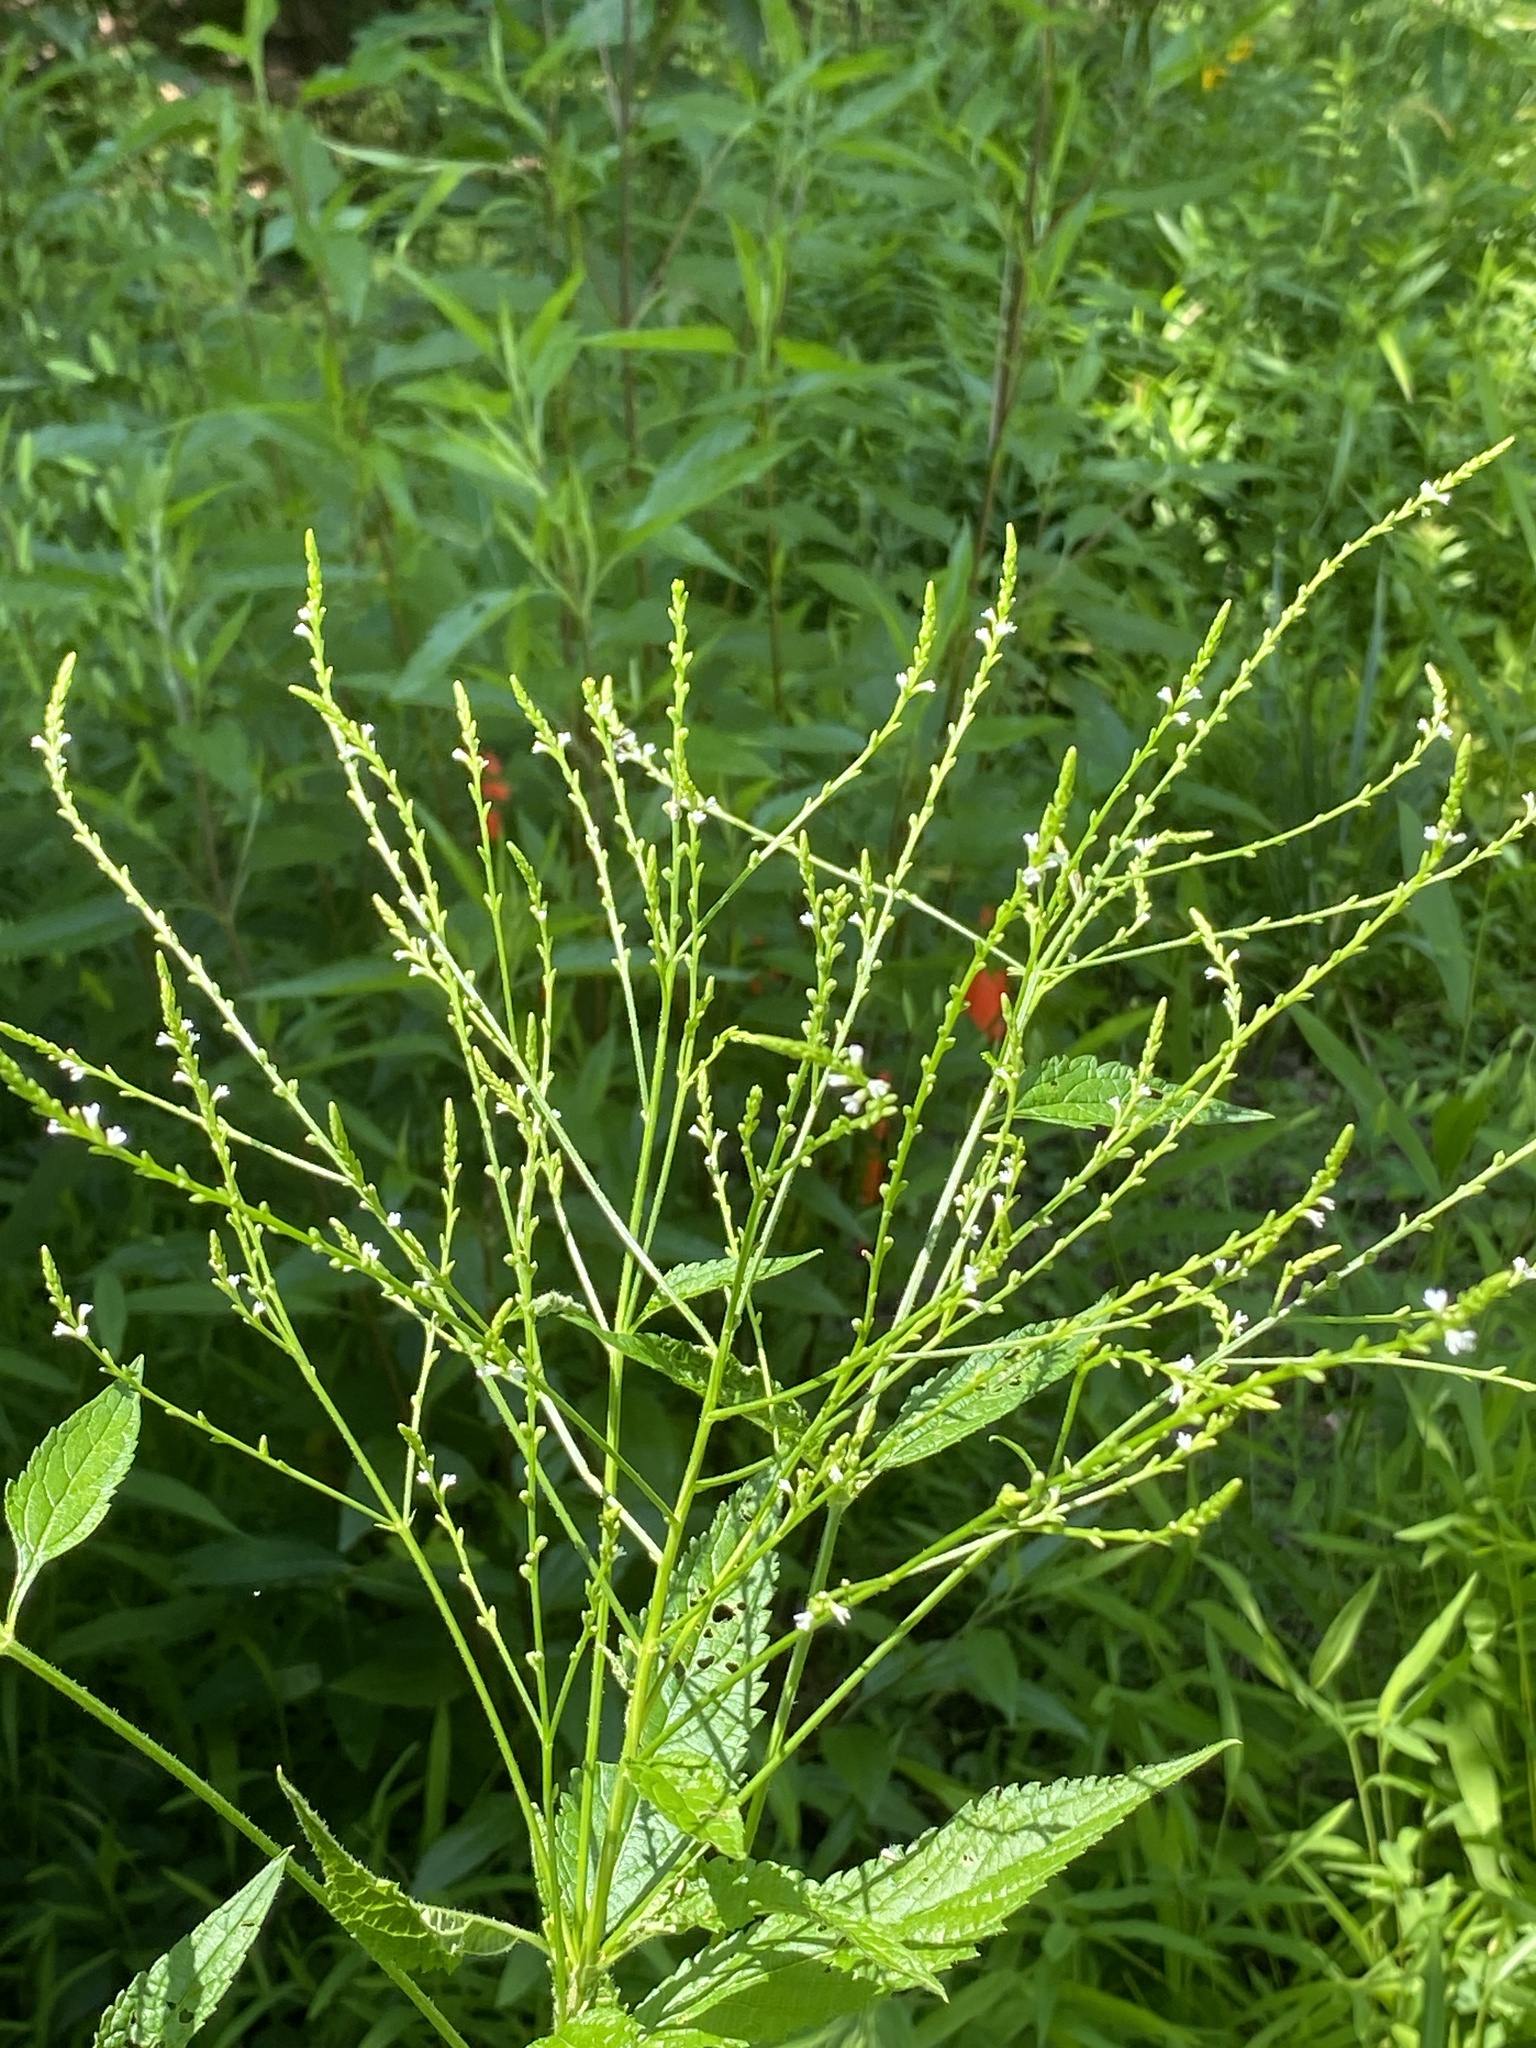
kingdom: Plantae
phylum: Tracheophyta
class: Magnoliopsida
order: Lamiales
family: Verbenaceae
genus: Verbena
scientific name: Verbena urticifolia
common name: Nettle-leaved vervain
